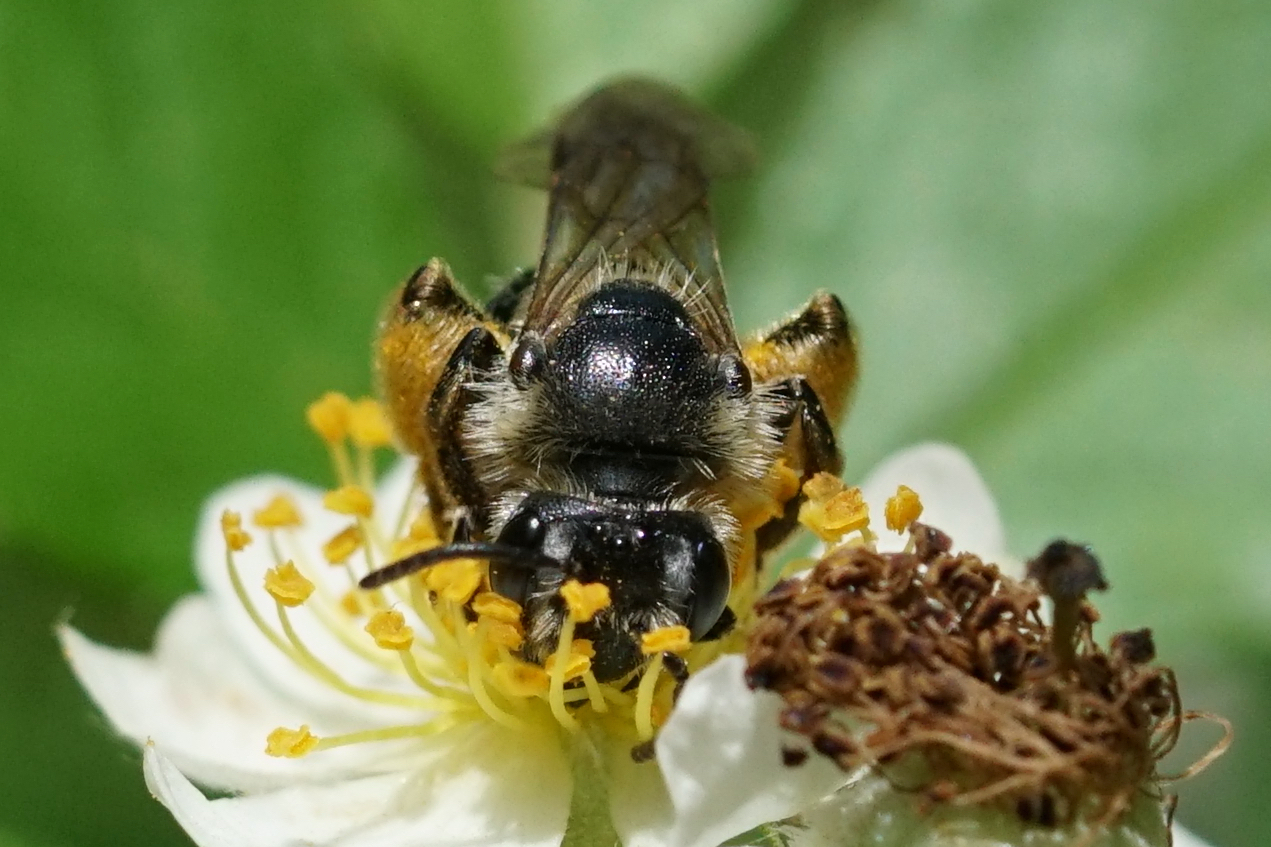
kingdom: Animalia
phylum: Arthropoda
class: Insecta
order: Hymenoptera
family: Andrenidae
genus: Andrena
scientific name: Andrena
